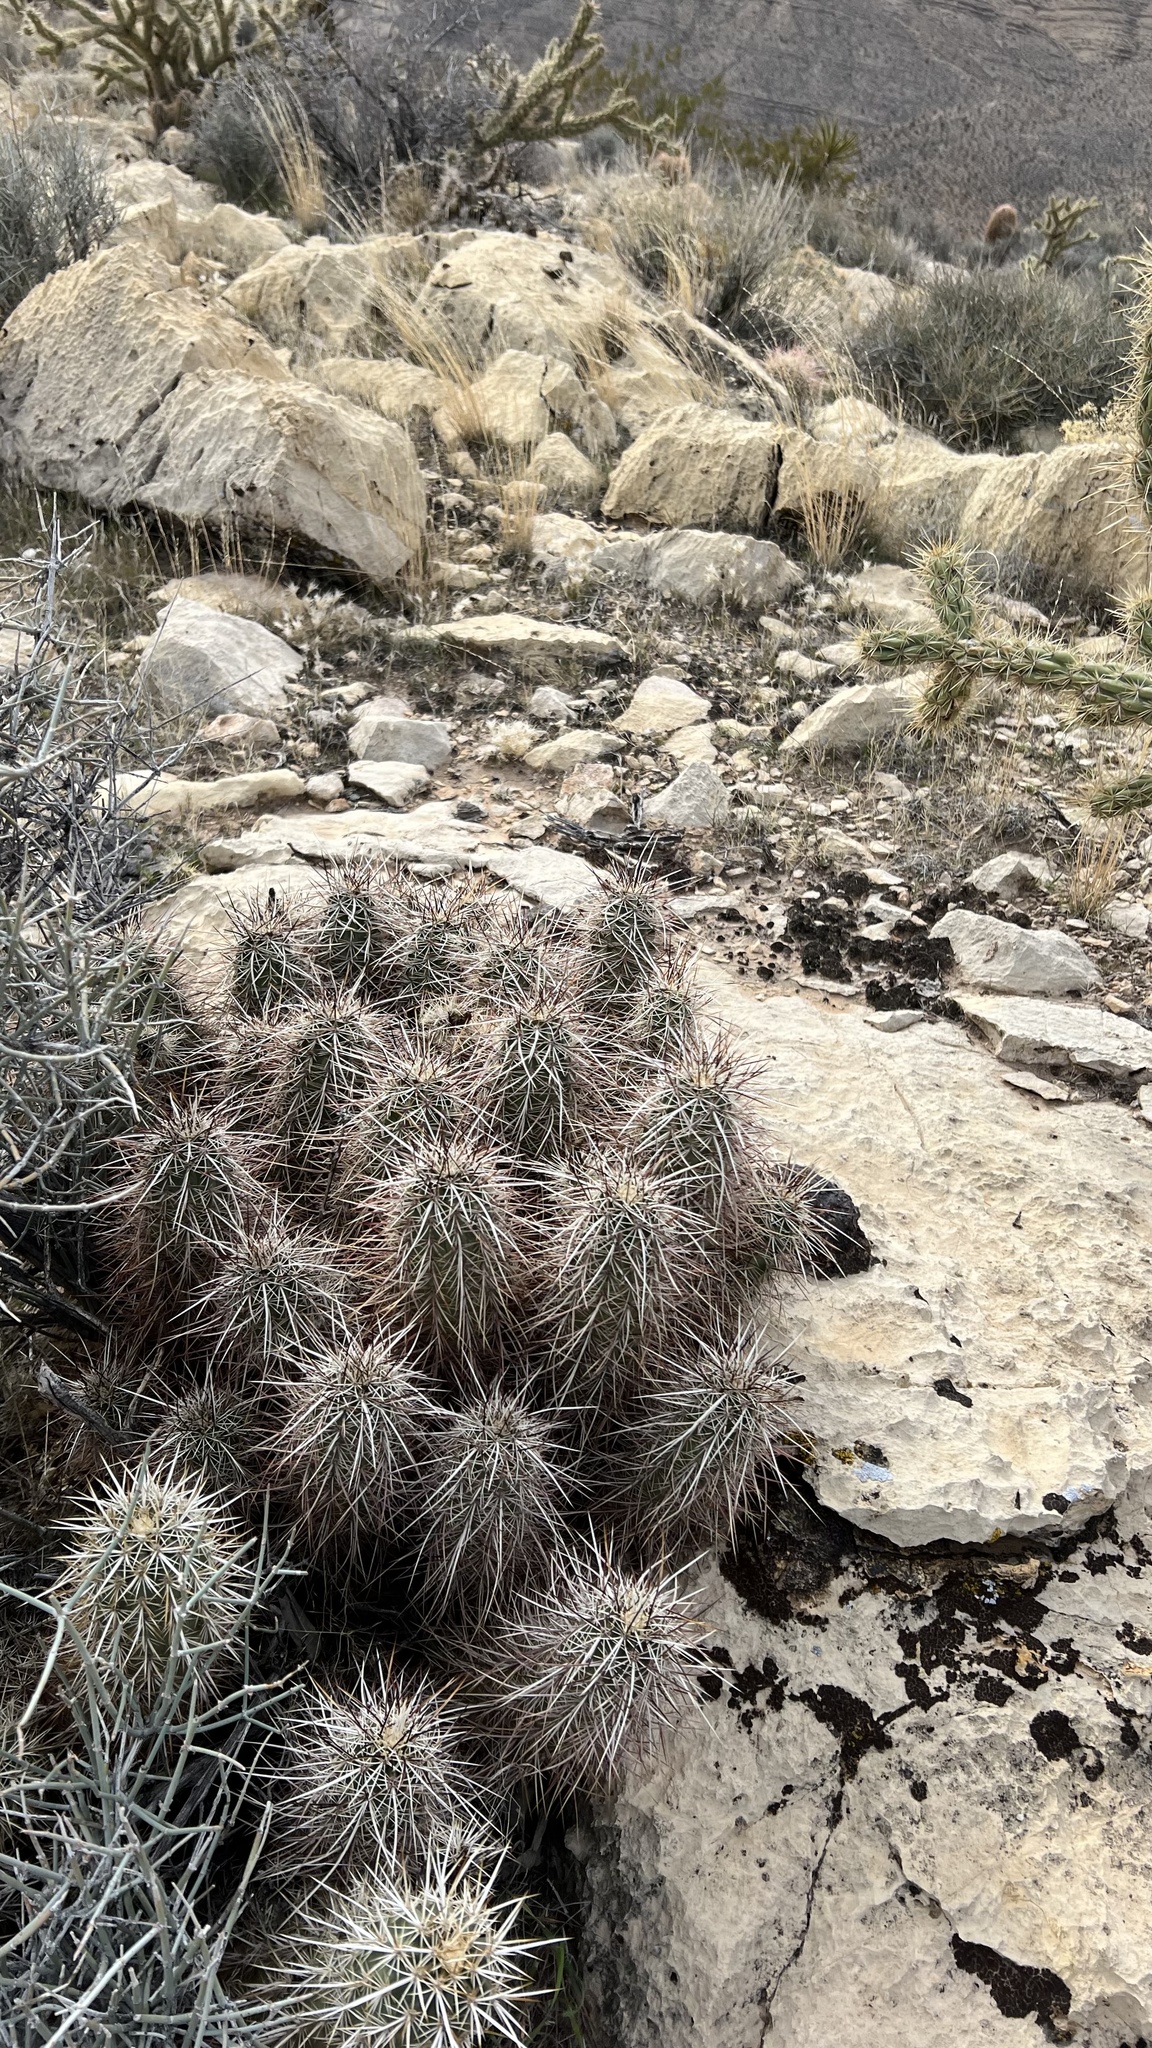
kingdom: Plantae
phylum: Tracheophyta
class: Magnoliopsida
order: Caryophyllales
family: Cactaceae
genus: Echinocereus
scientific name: Echinocereus engelmannii
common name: Engelmann's hedgehog cactus
